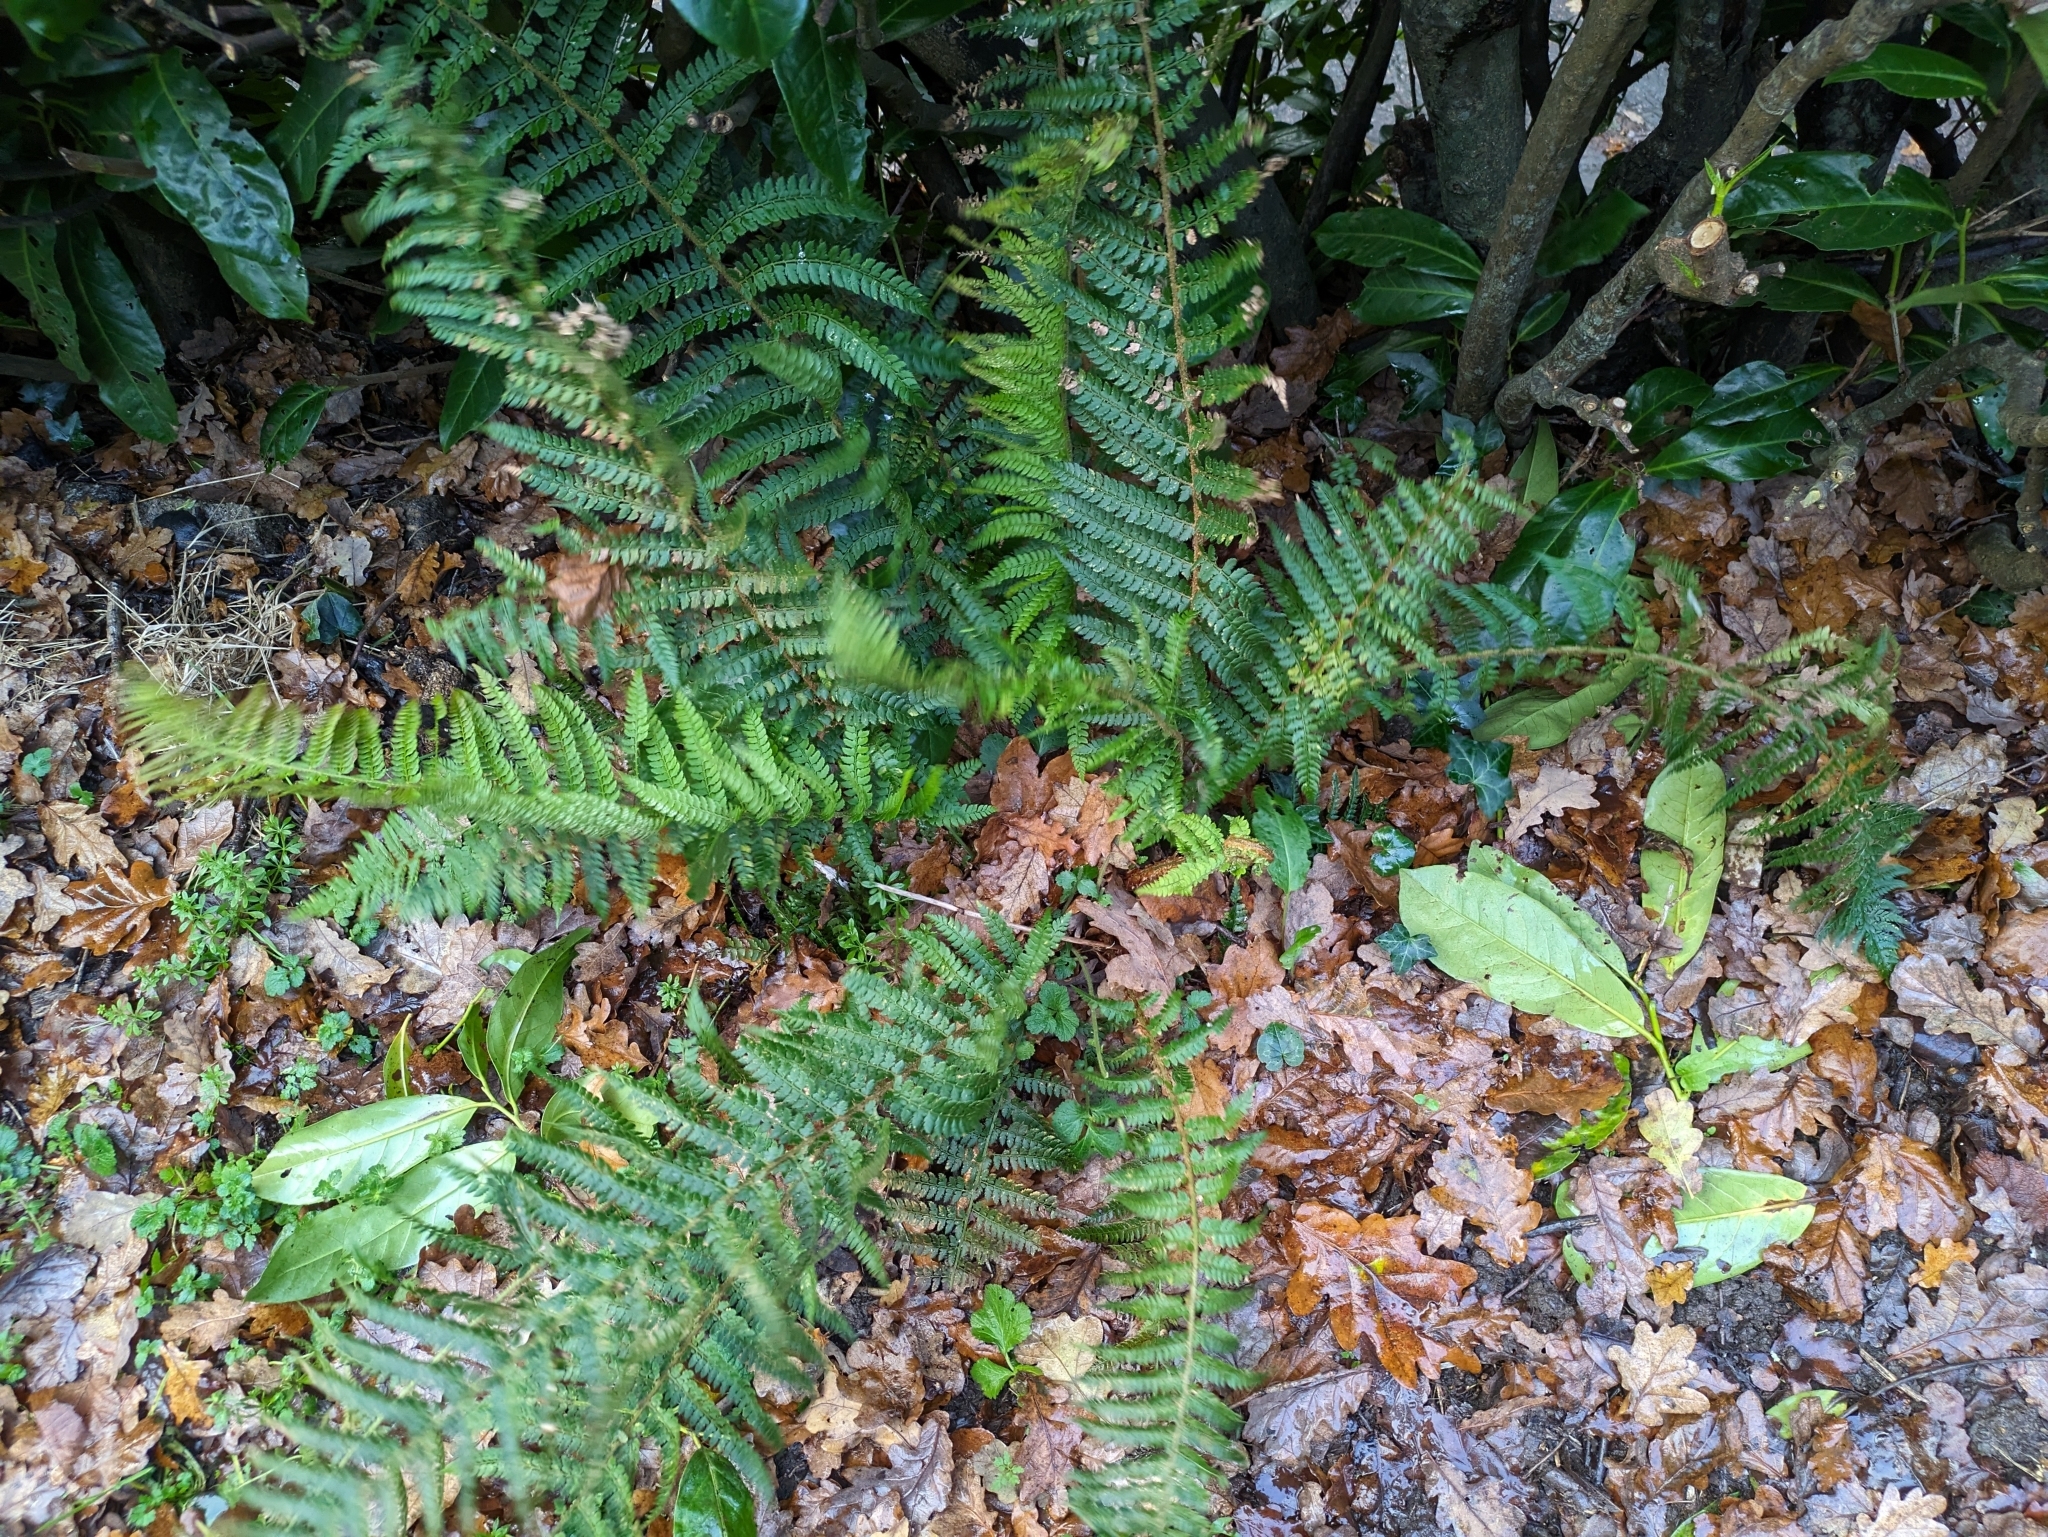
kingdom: Plantae
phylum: Tracheophyta
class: Polypodiopsida
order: Polypodiales
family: Dryopteridaceae
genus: Polystichum
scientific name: Polystichum setiferum
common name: Soft shield-fern
